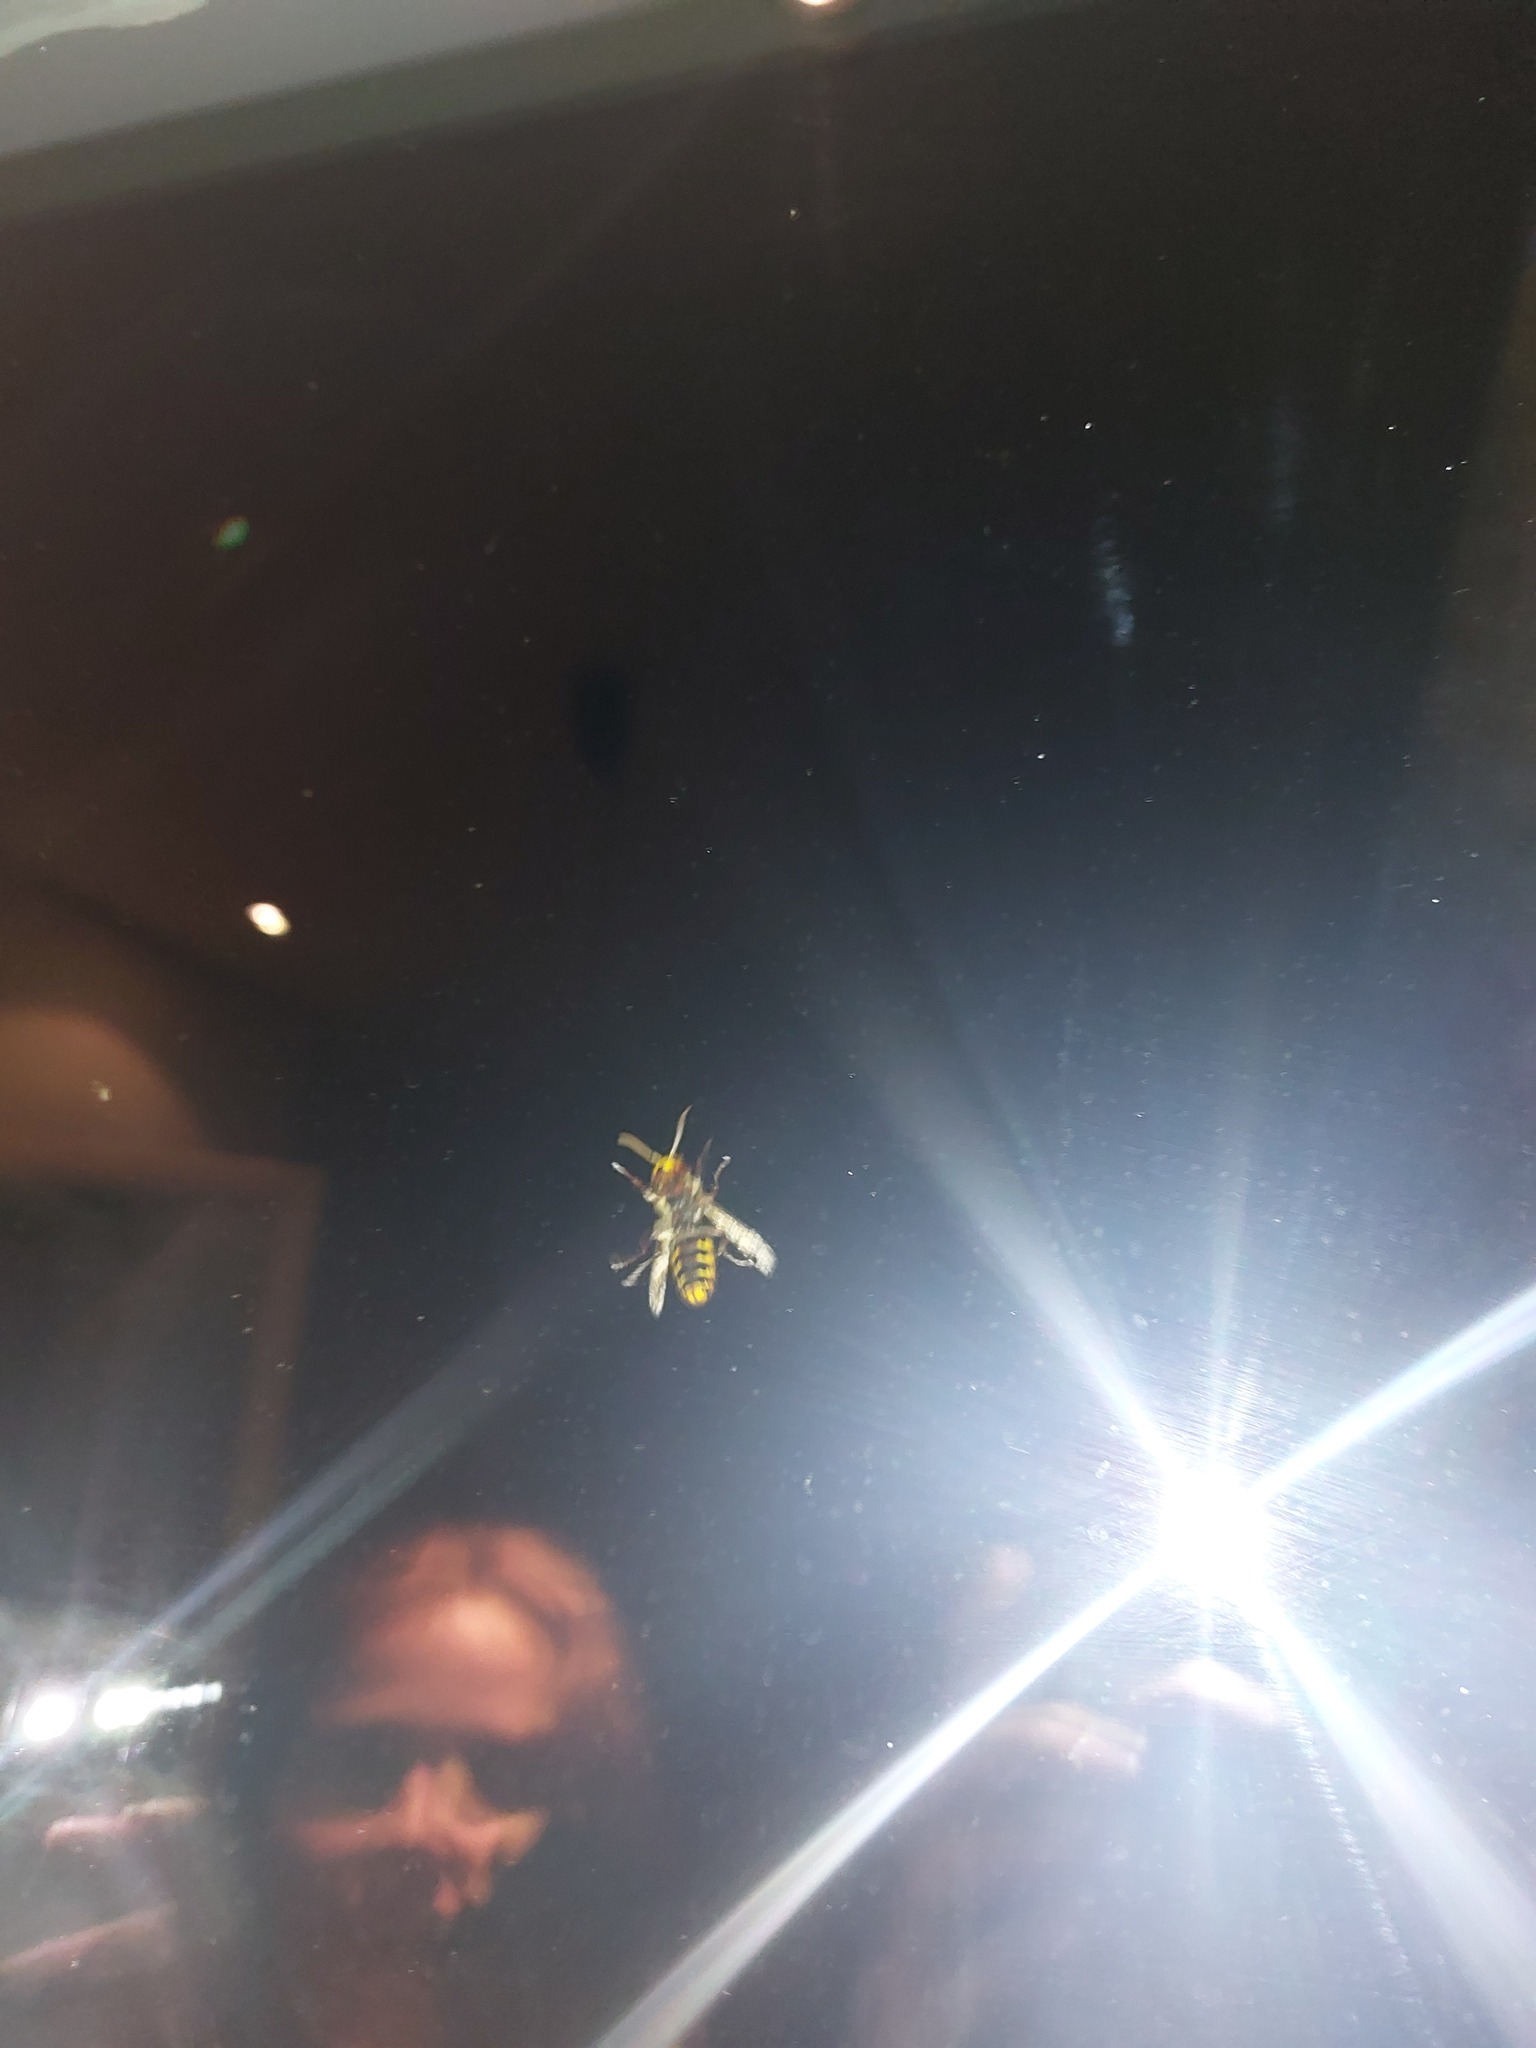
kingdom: Animalia
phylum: Arthropoda
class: Insecta
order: Hymenoptera
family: Vespidae
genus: Vespa
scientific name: Vespa crabro
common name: Hornet
